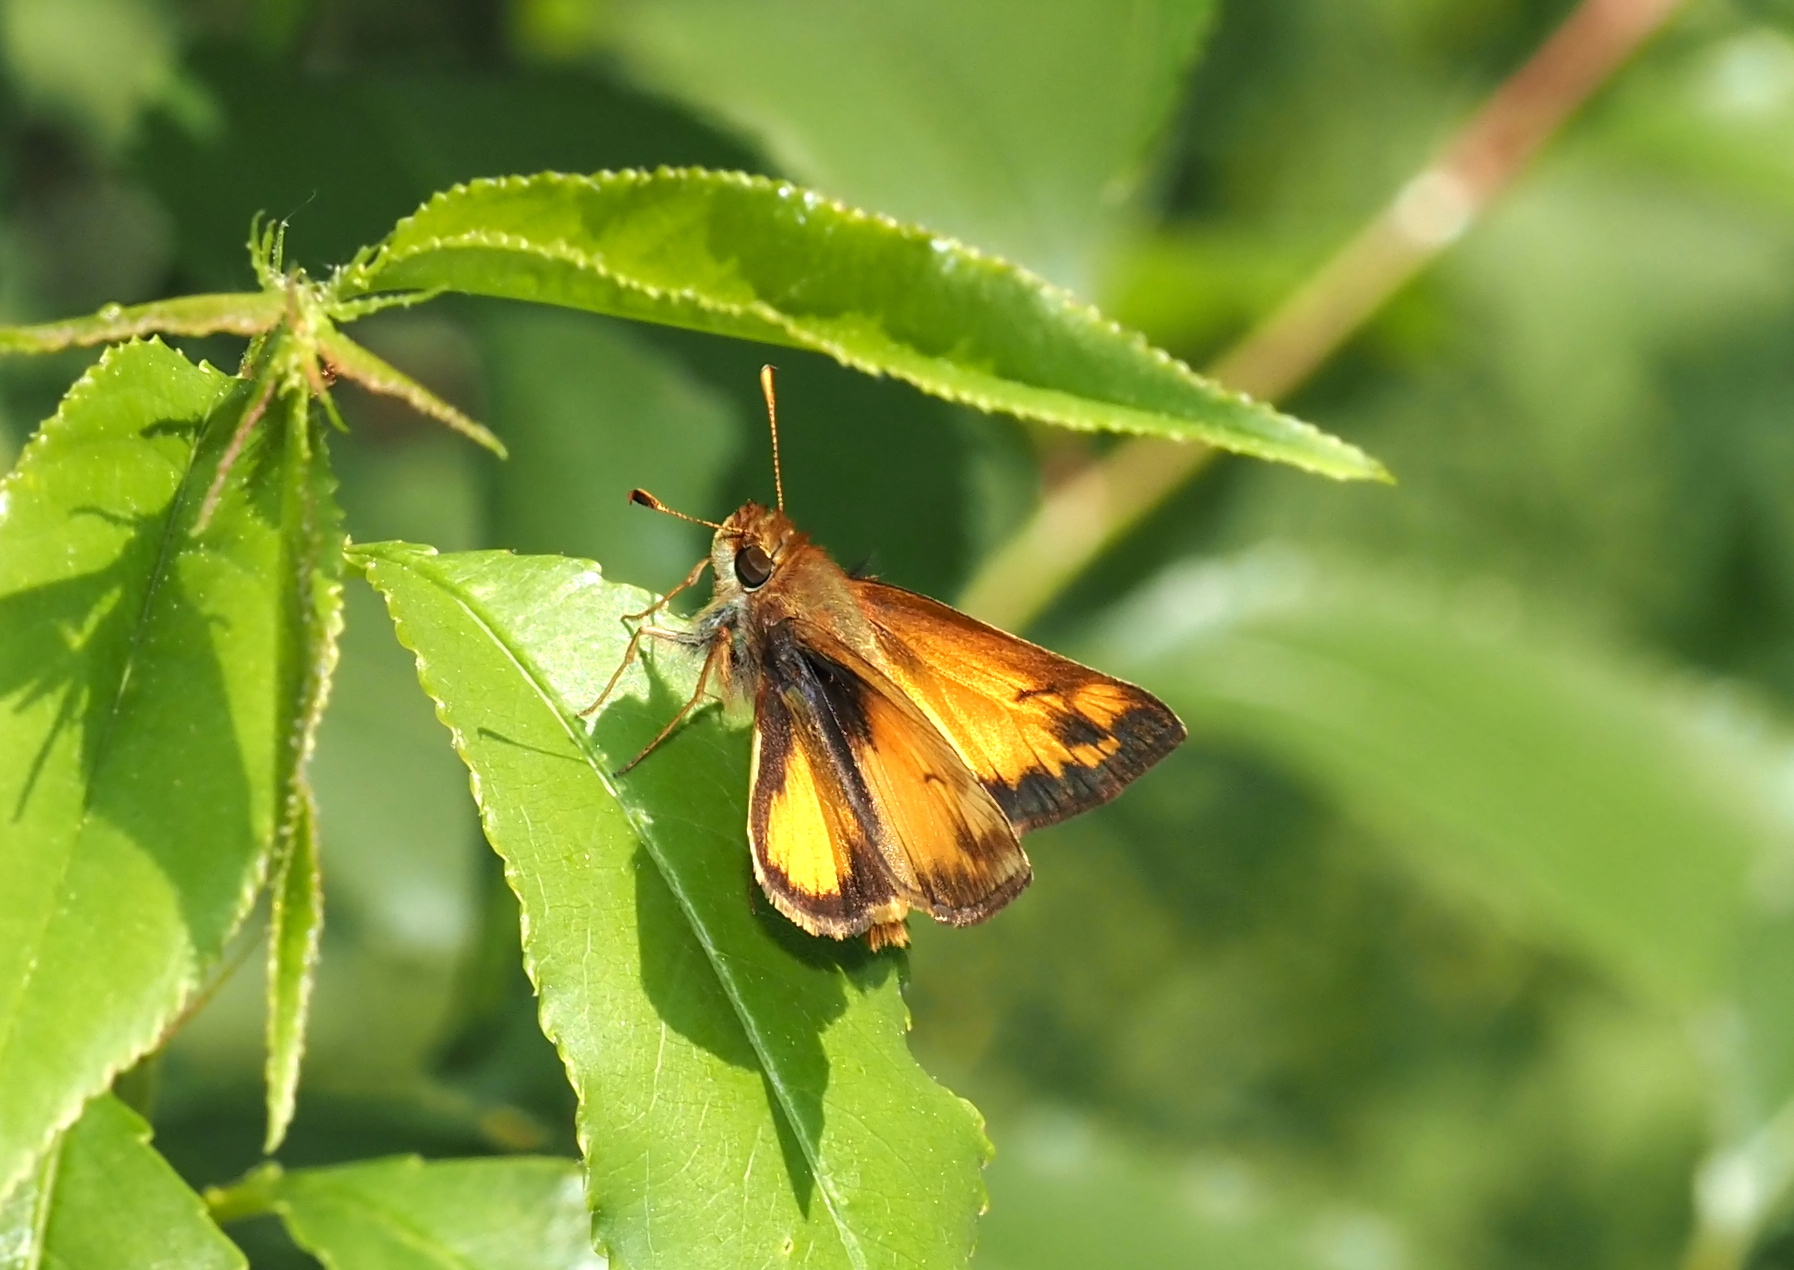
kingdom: Animalia
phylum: Arthropoda
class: Insecta
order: Lepidoptera
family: Hesperiidae
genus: Lon
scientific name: Lon zabulon
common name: Zabulon skipper
